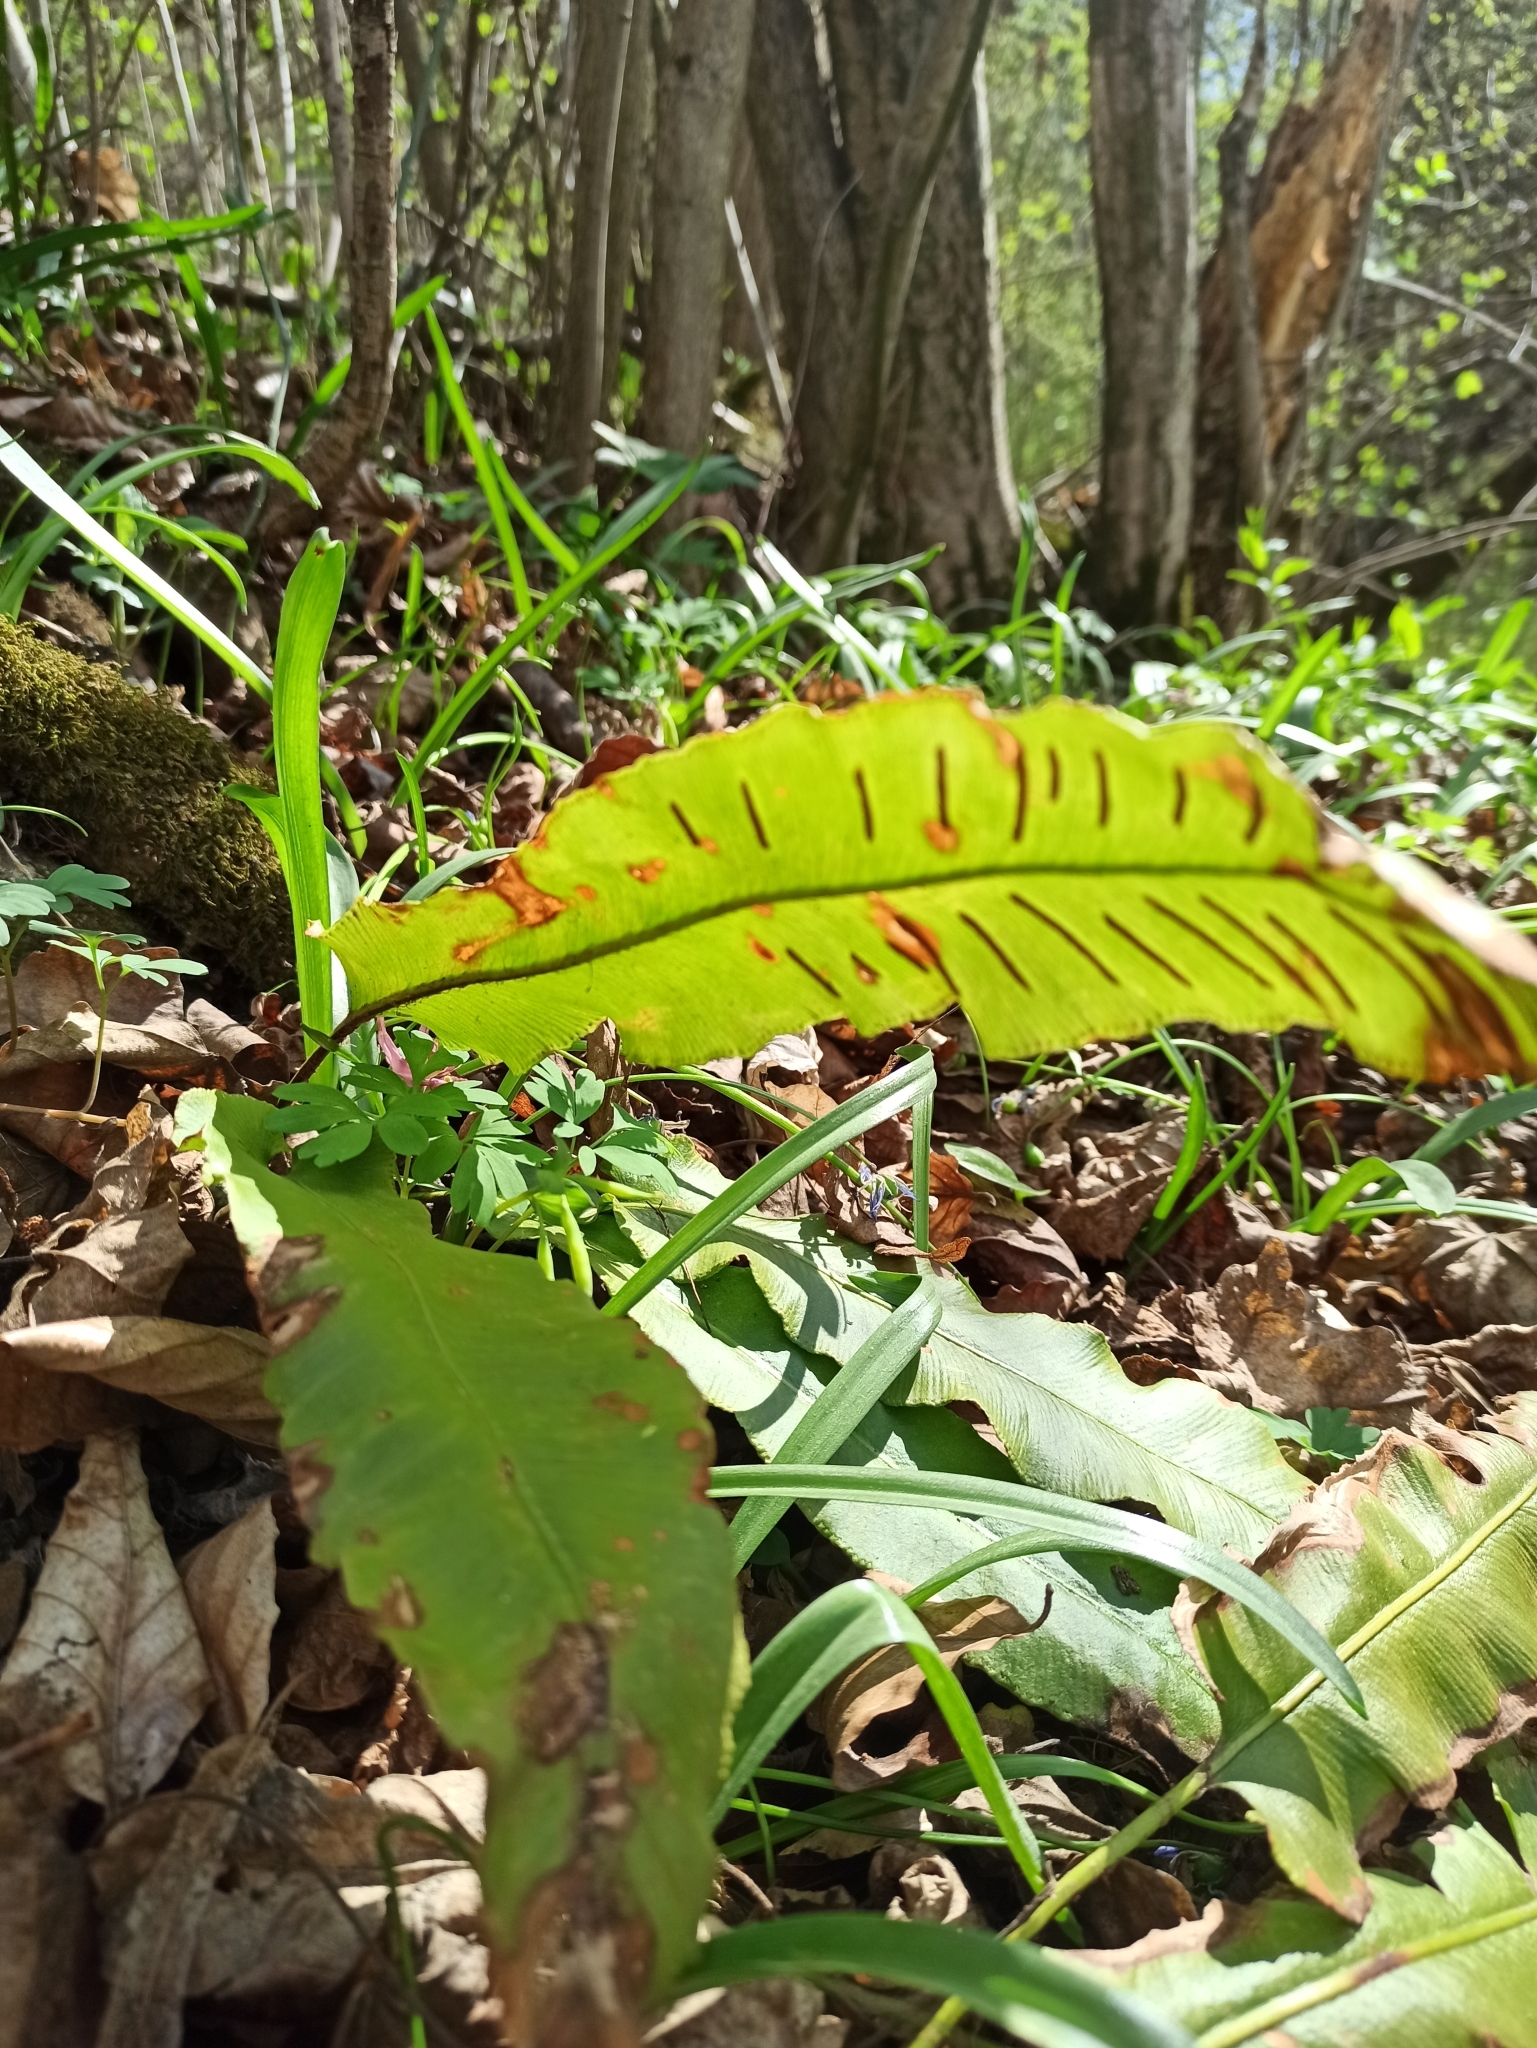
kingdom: Plantae
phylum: Tracheophyta
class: Polypodiopsida
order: Polypodiales
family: Aspleniaceae
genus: Asplenium
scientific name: Asplenium scolopendrium
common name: Hart's-tongue fern
